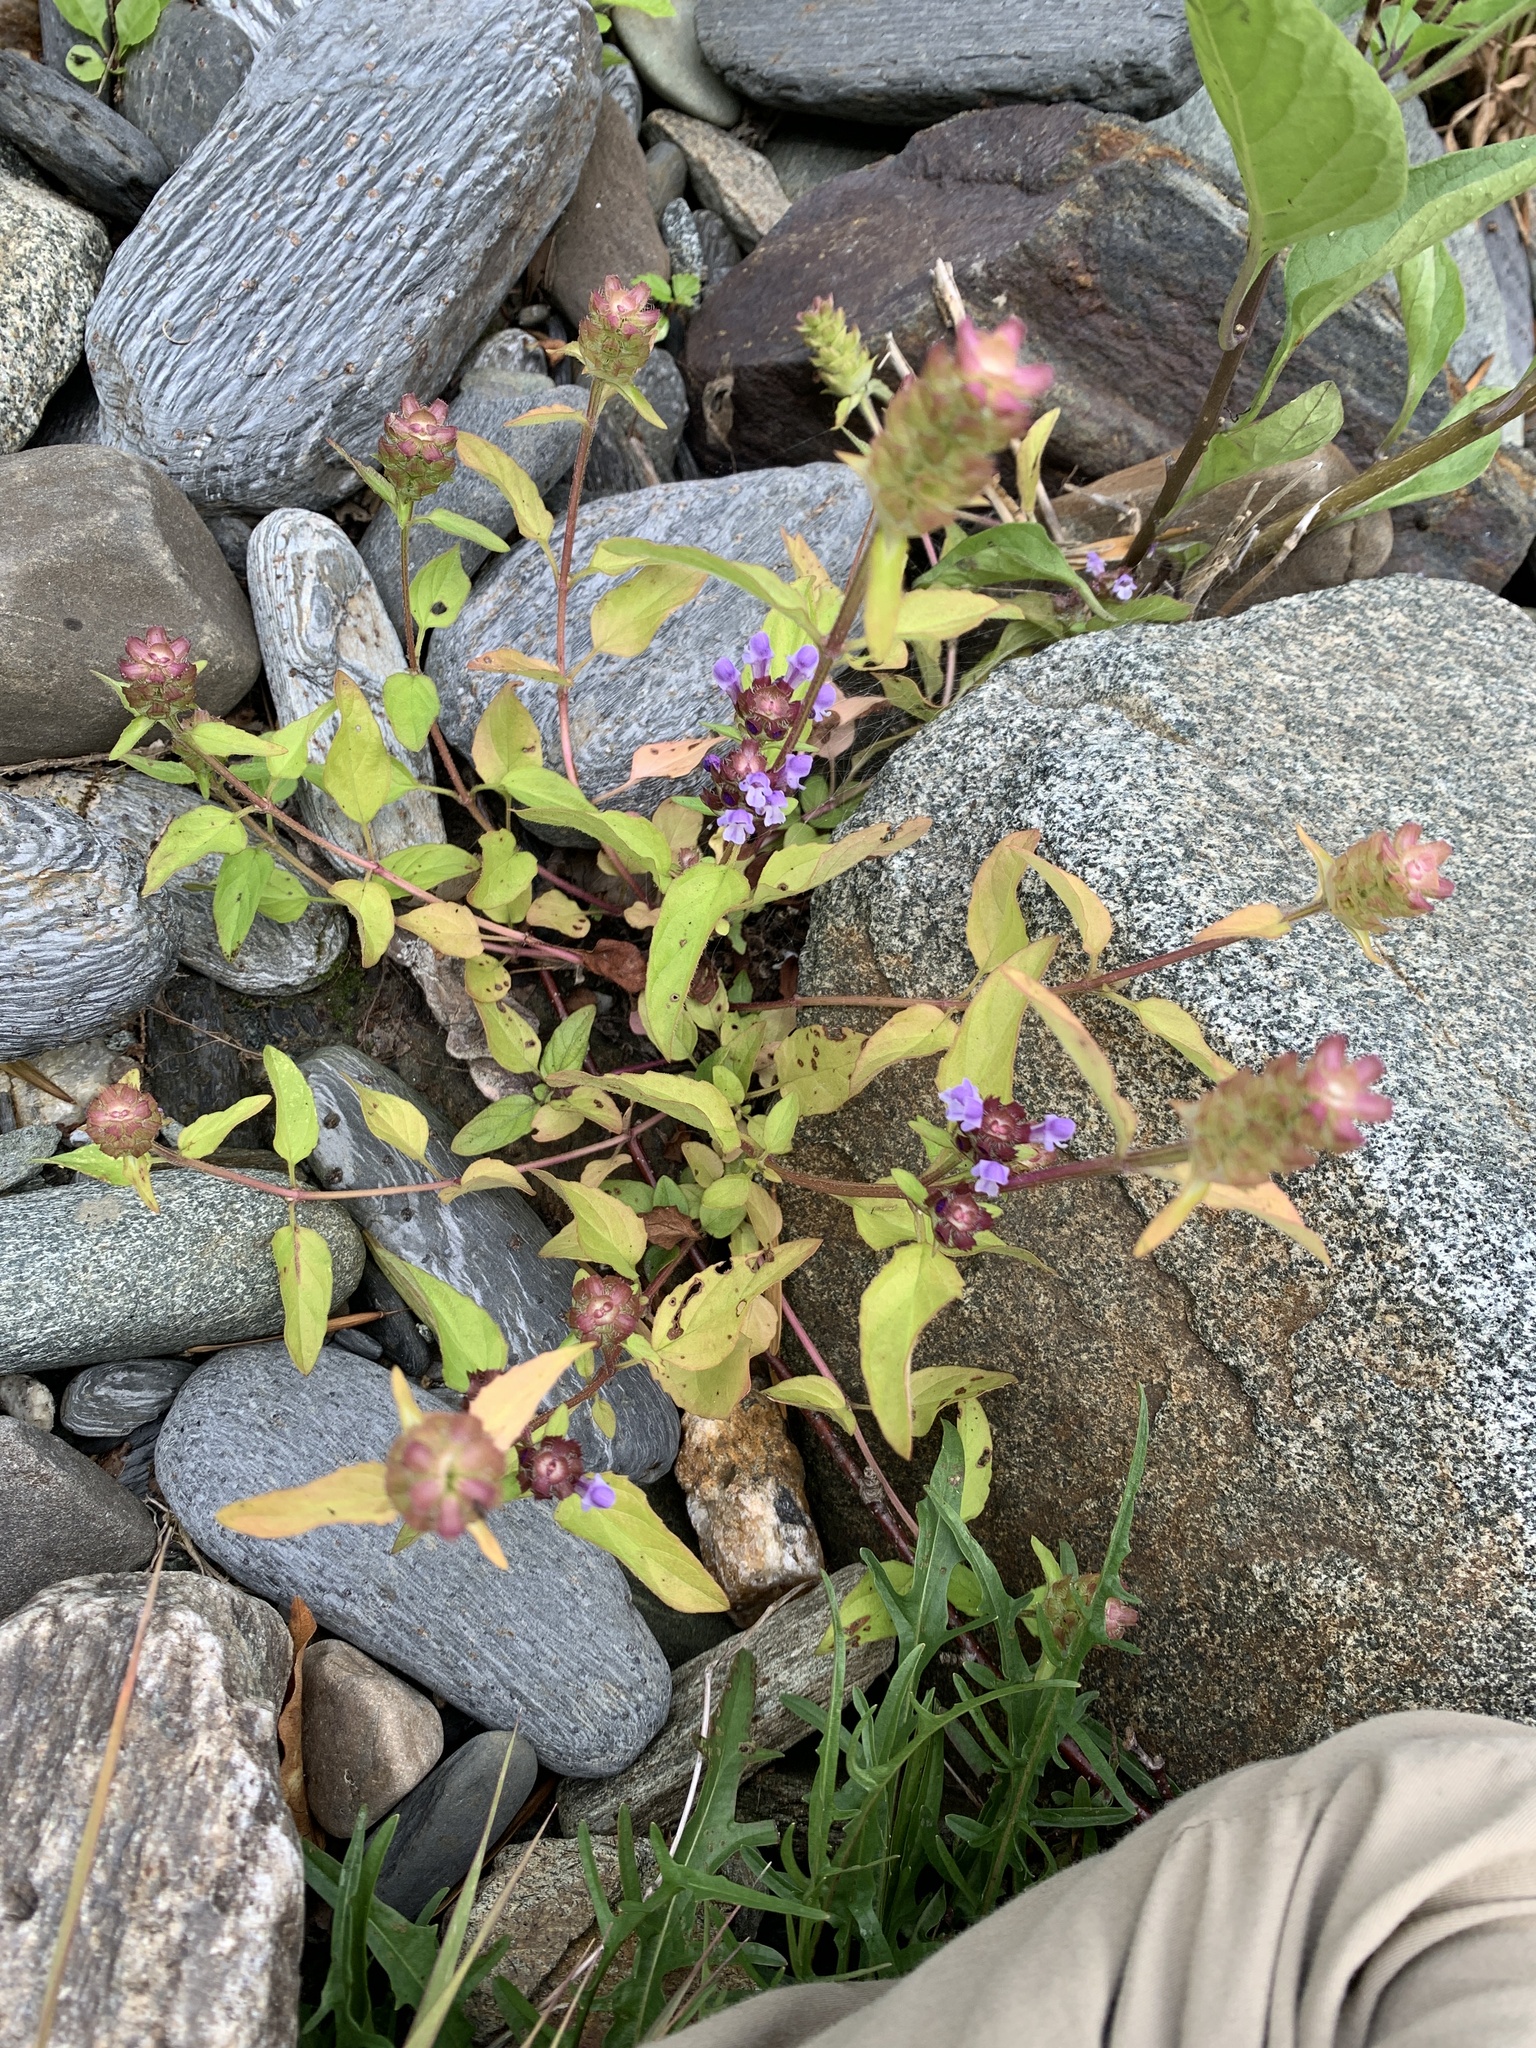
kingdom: Plantae
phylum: Tracheophyta
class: Magnoliopsida
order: Lamiales
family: Lamiaceae
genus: Prunella
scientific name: Prunella vulgaris
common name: Heal-all
